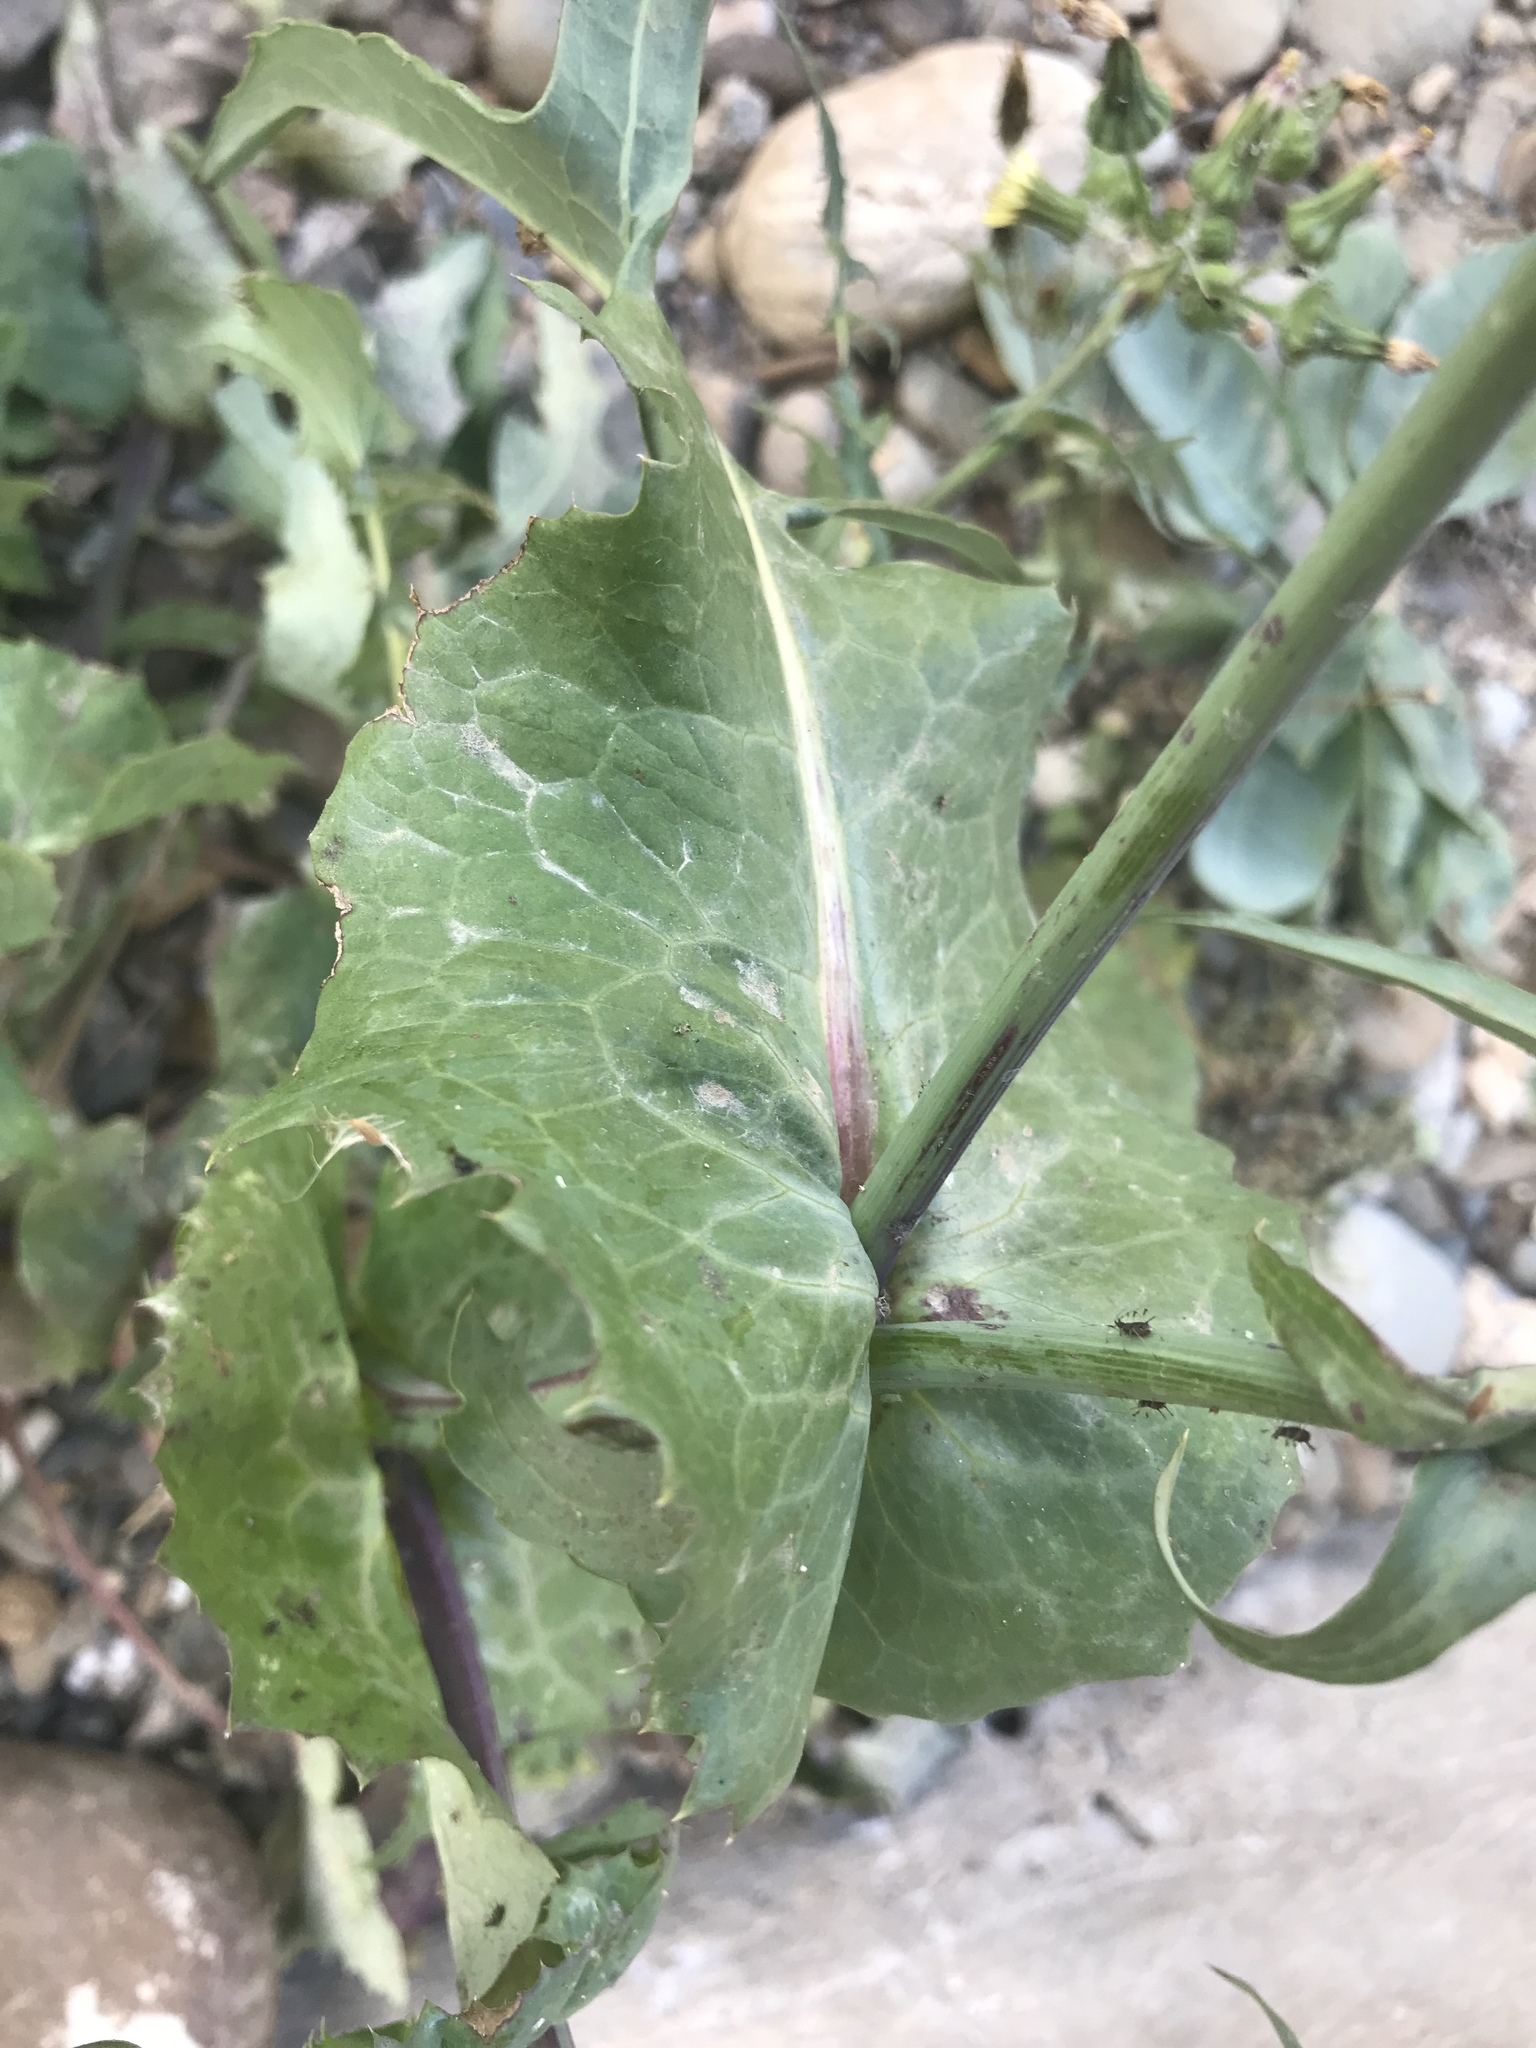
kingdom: Plantae
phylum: Tracheophyta
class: Magnoliopsida
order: Asterales
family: Asteraceae
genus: Sonchus
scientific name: Sonchus oleraceus
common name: Common sowthistle
